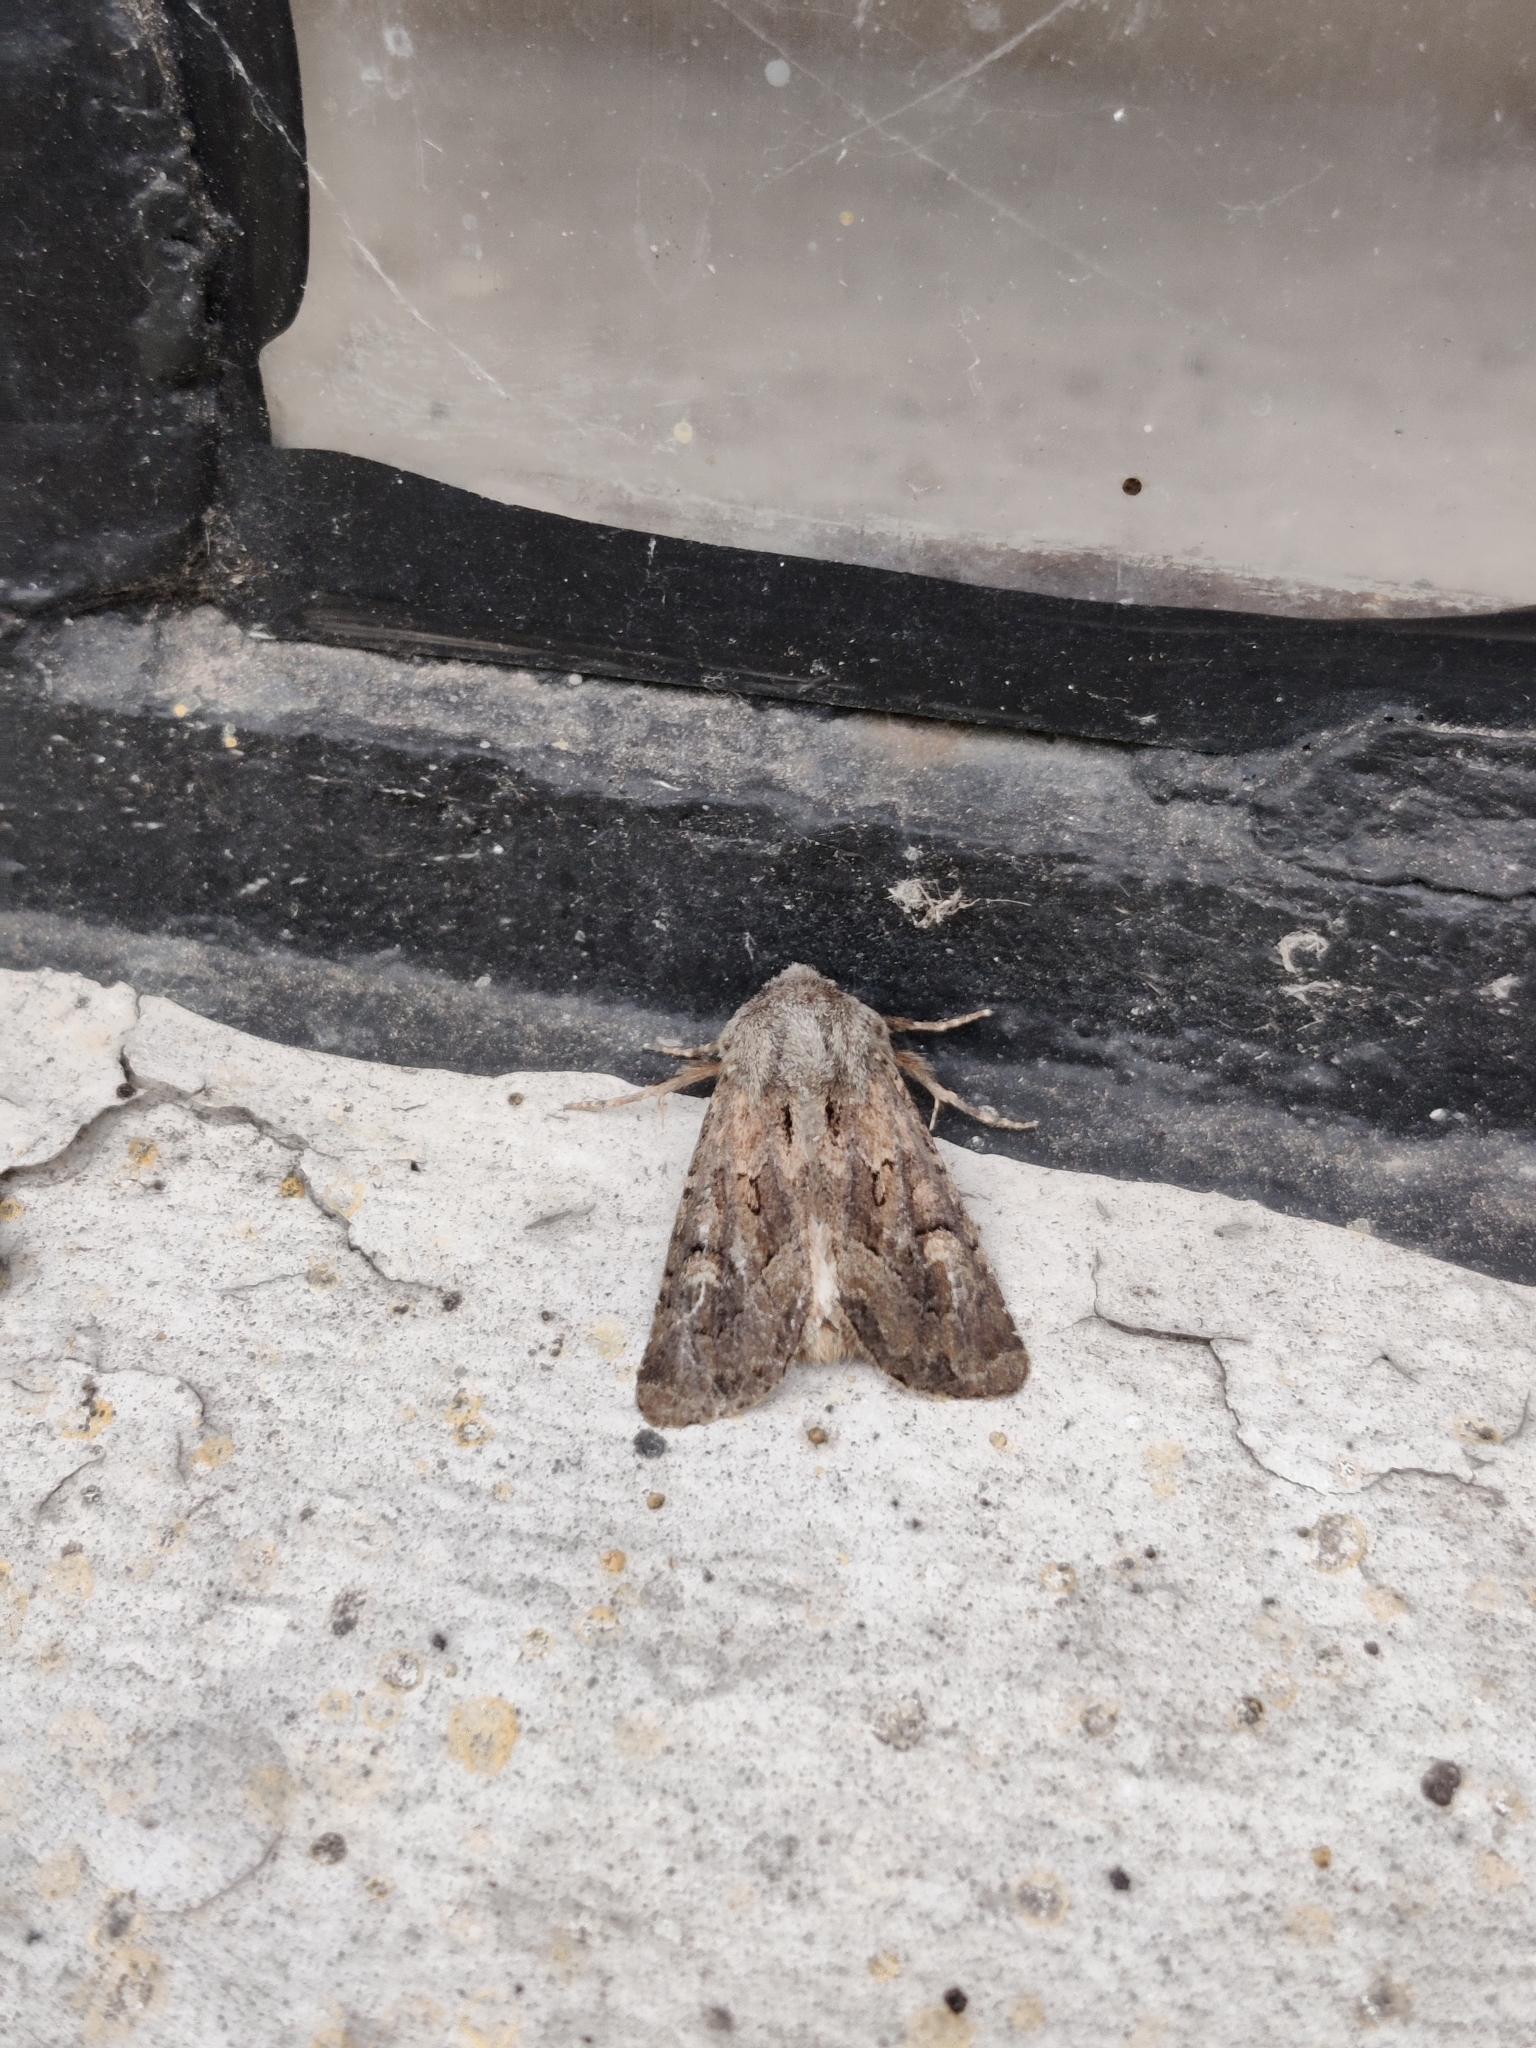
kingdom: Animalia
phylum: Arthropoda
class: Insecta
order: Lepidoptera
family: Noctuidae
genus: Luperina
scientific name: Luperina testacea
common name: Flounced rustic
